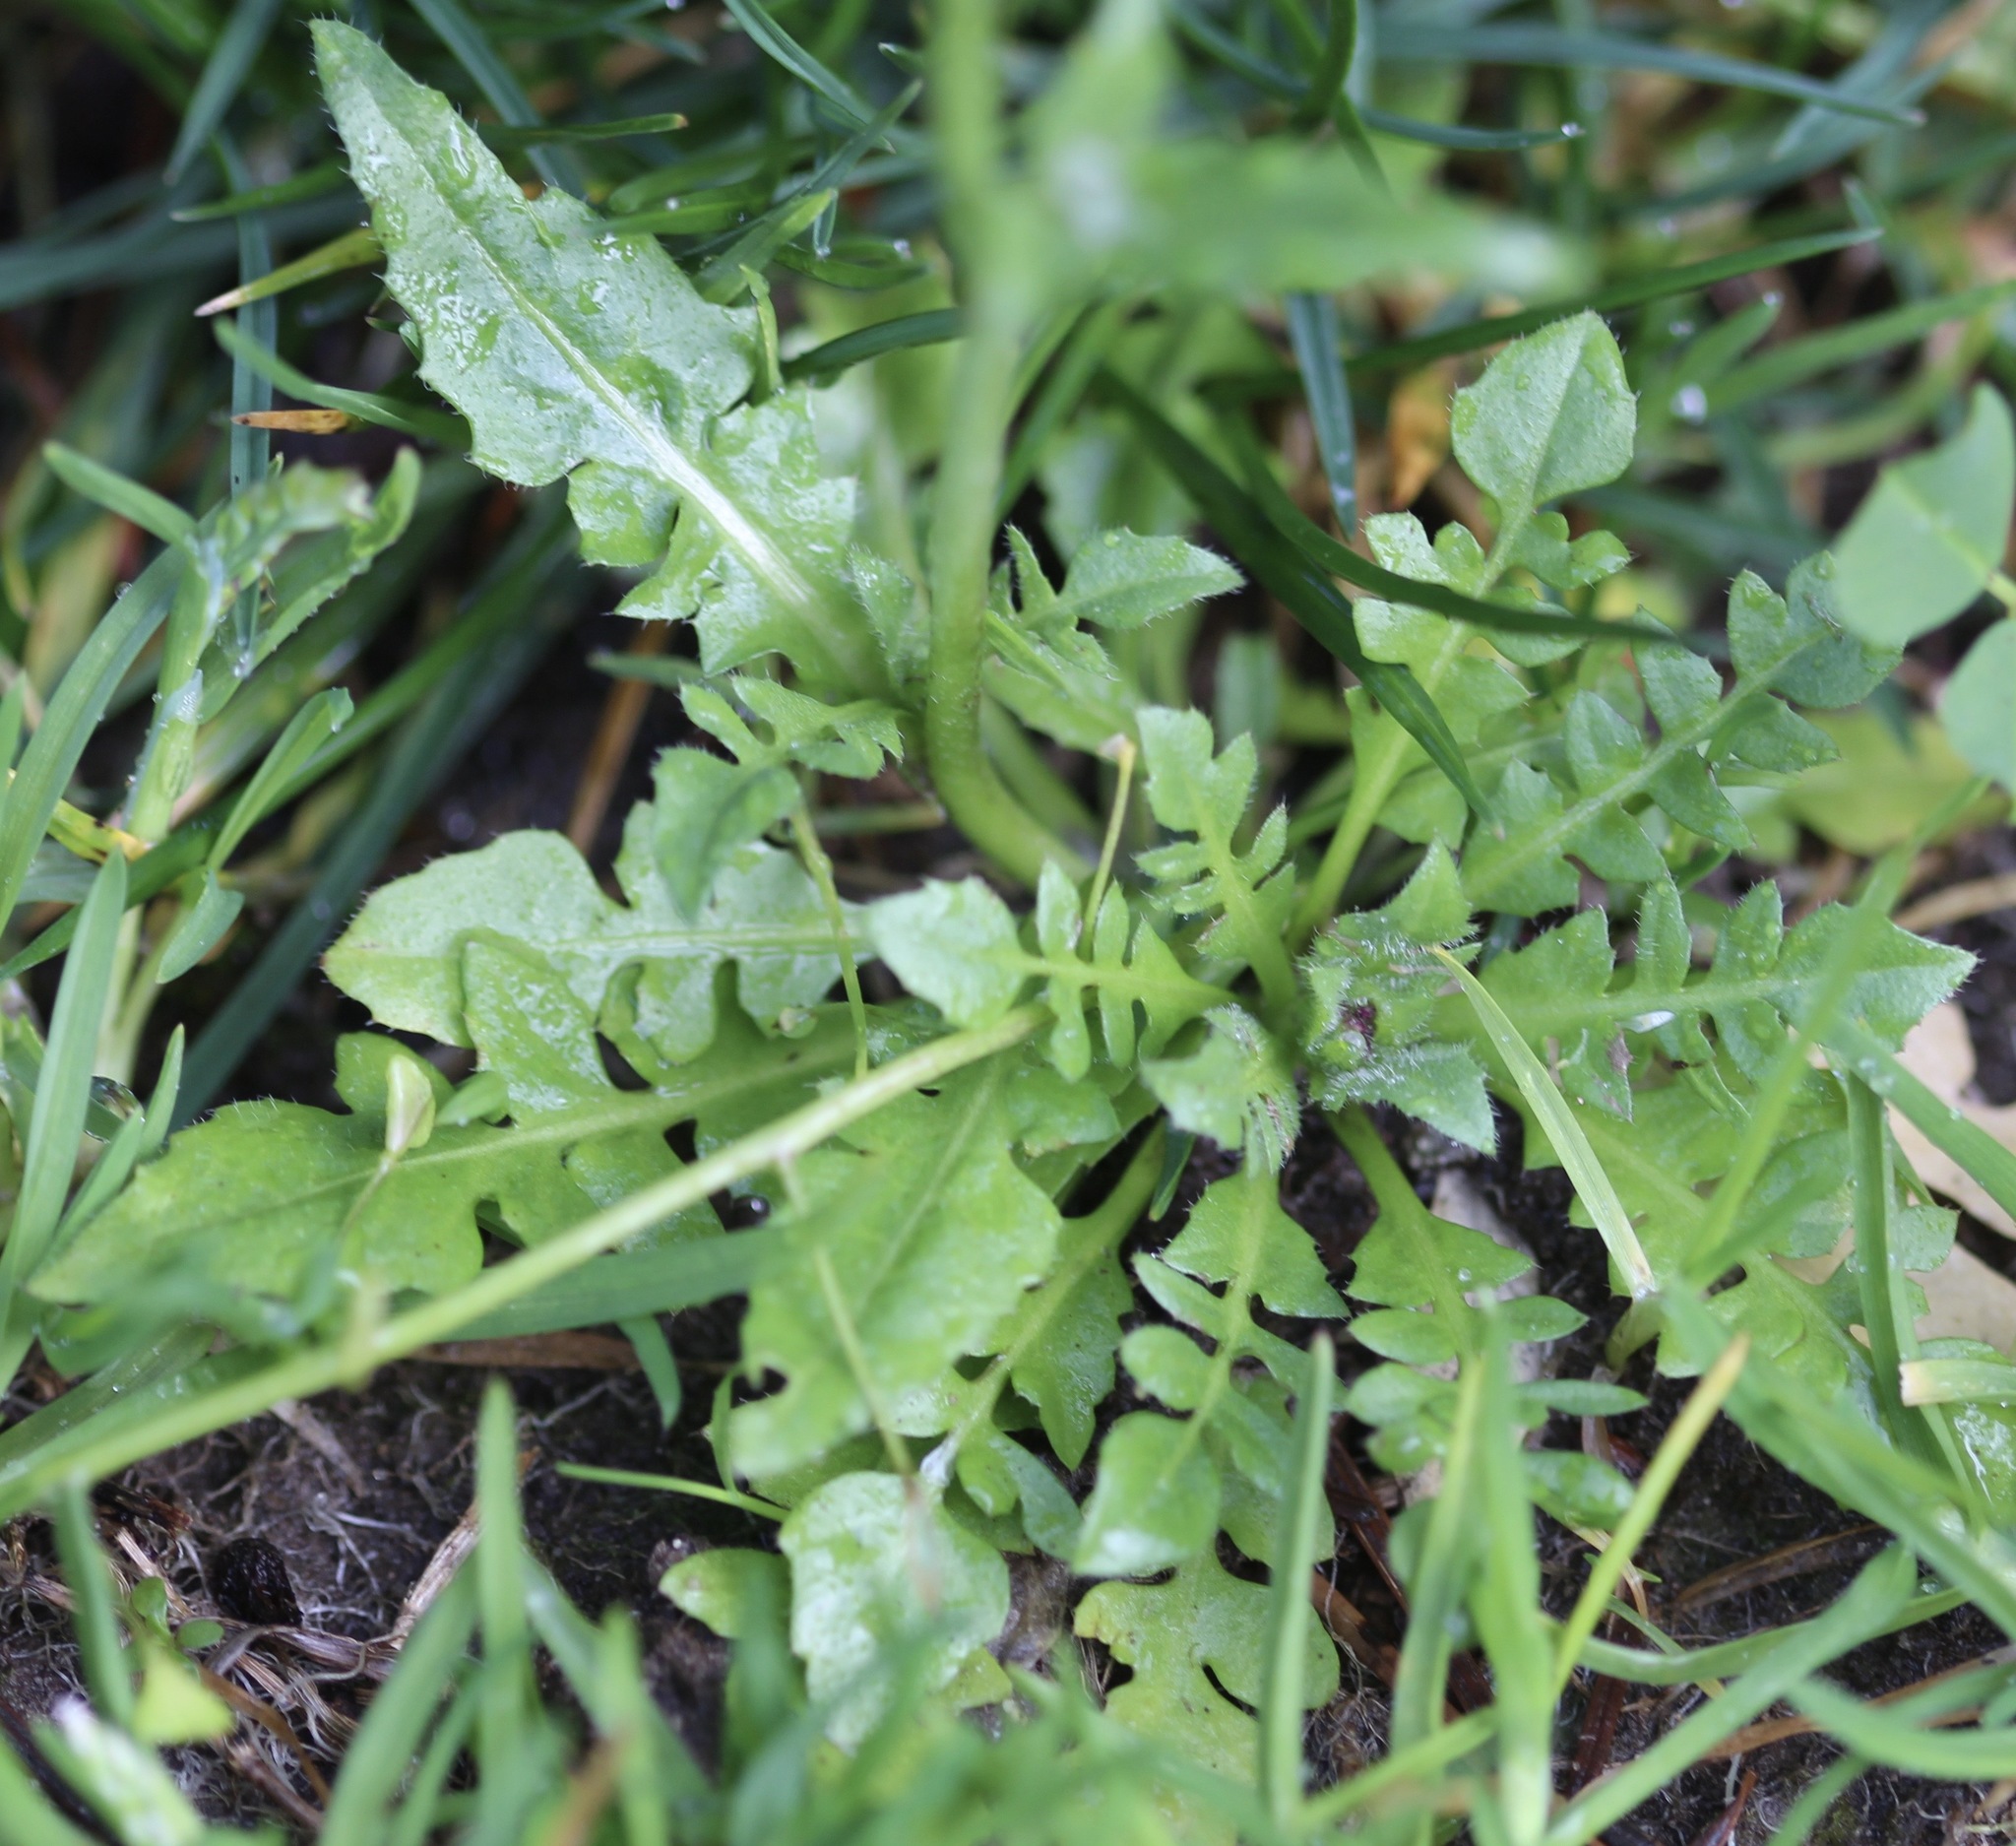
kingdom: Plantae
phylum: Tracheophyta
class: Magnoliopsida
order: Brassicales
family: Brassicaceae
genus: Capsella
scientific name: Capsella bursa-pastoris
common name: Shepherd's purse
